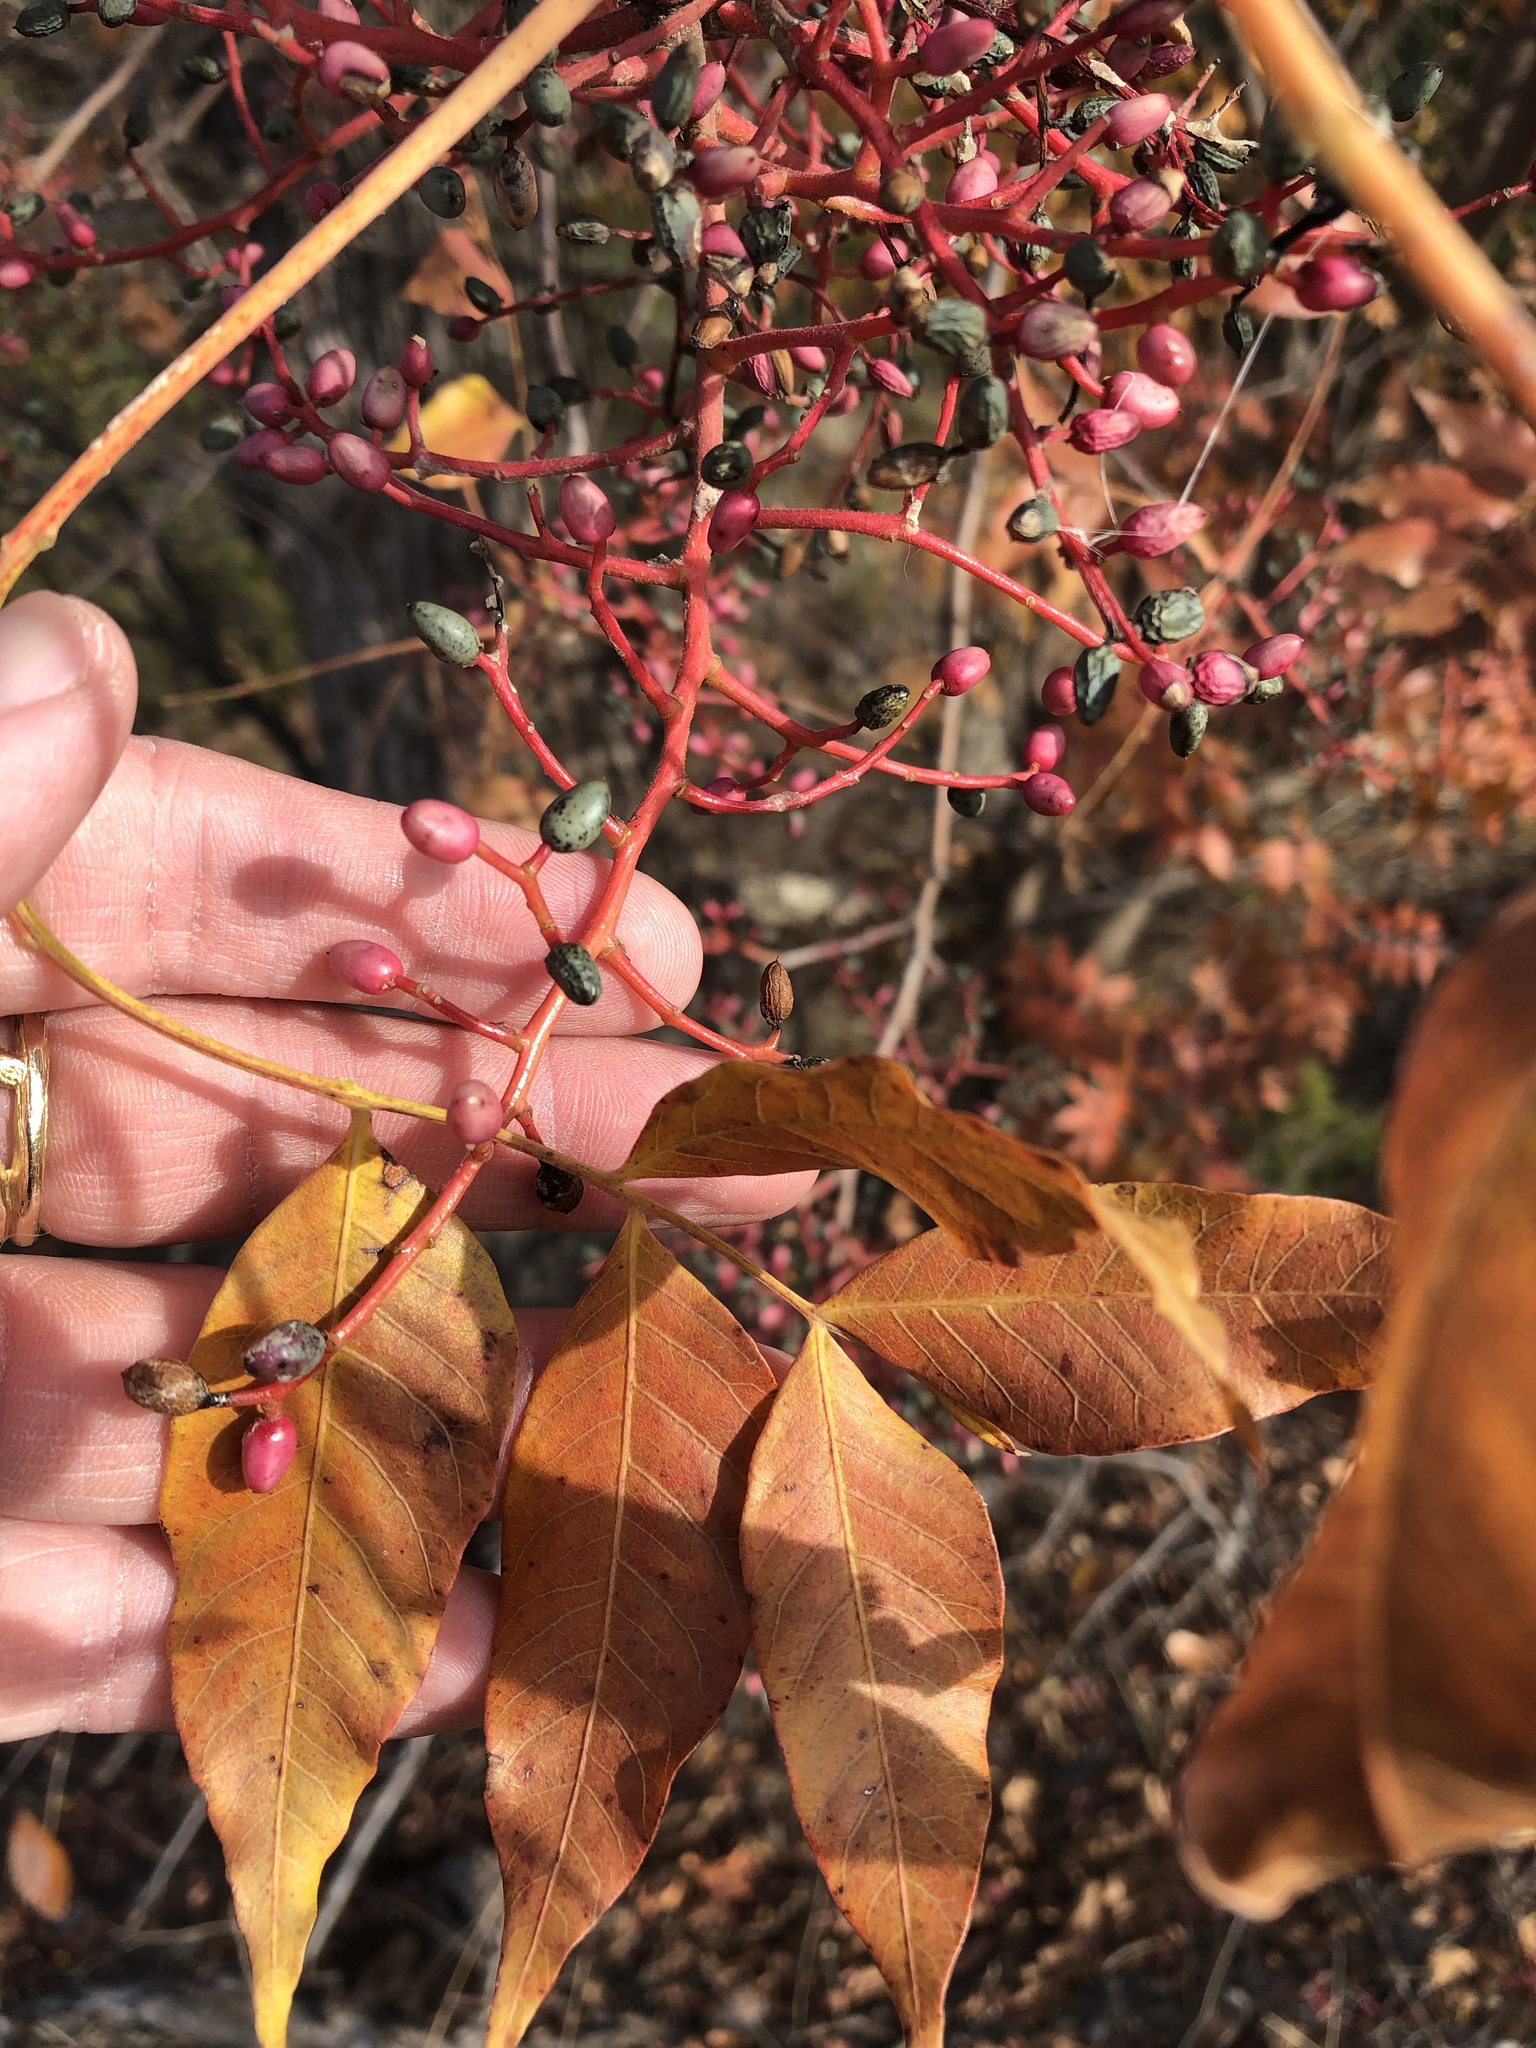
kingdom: Plantae
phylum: Tracheophyta
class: Magnoliopsida
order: Sapindales
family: Anacardiaceae
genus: Pistacia
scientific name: Pistacia chinensis
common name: Chinese pistache
